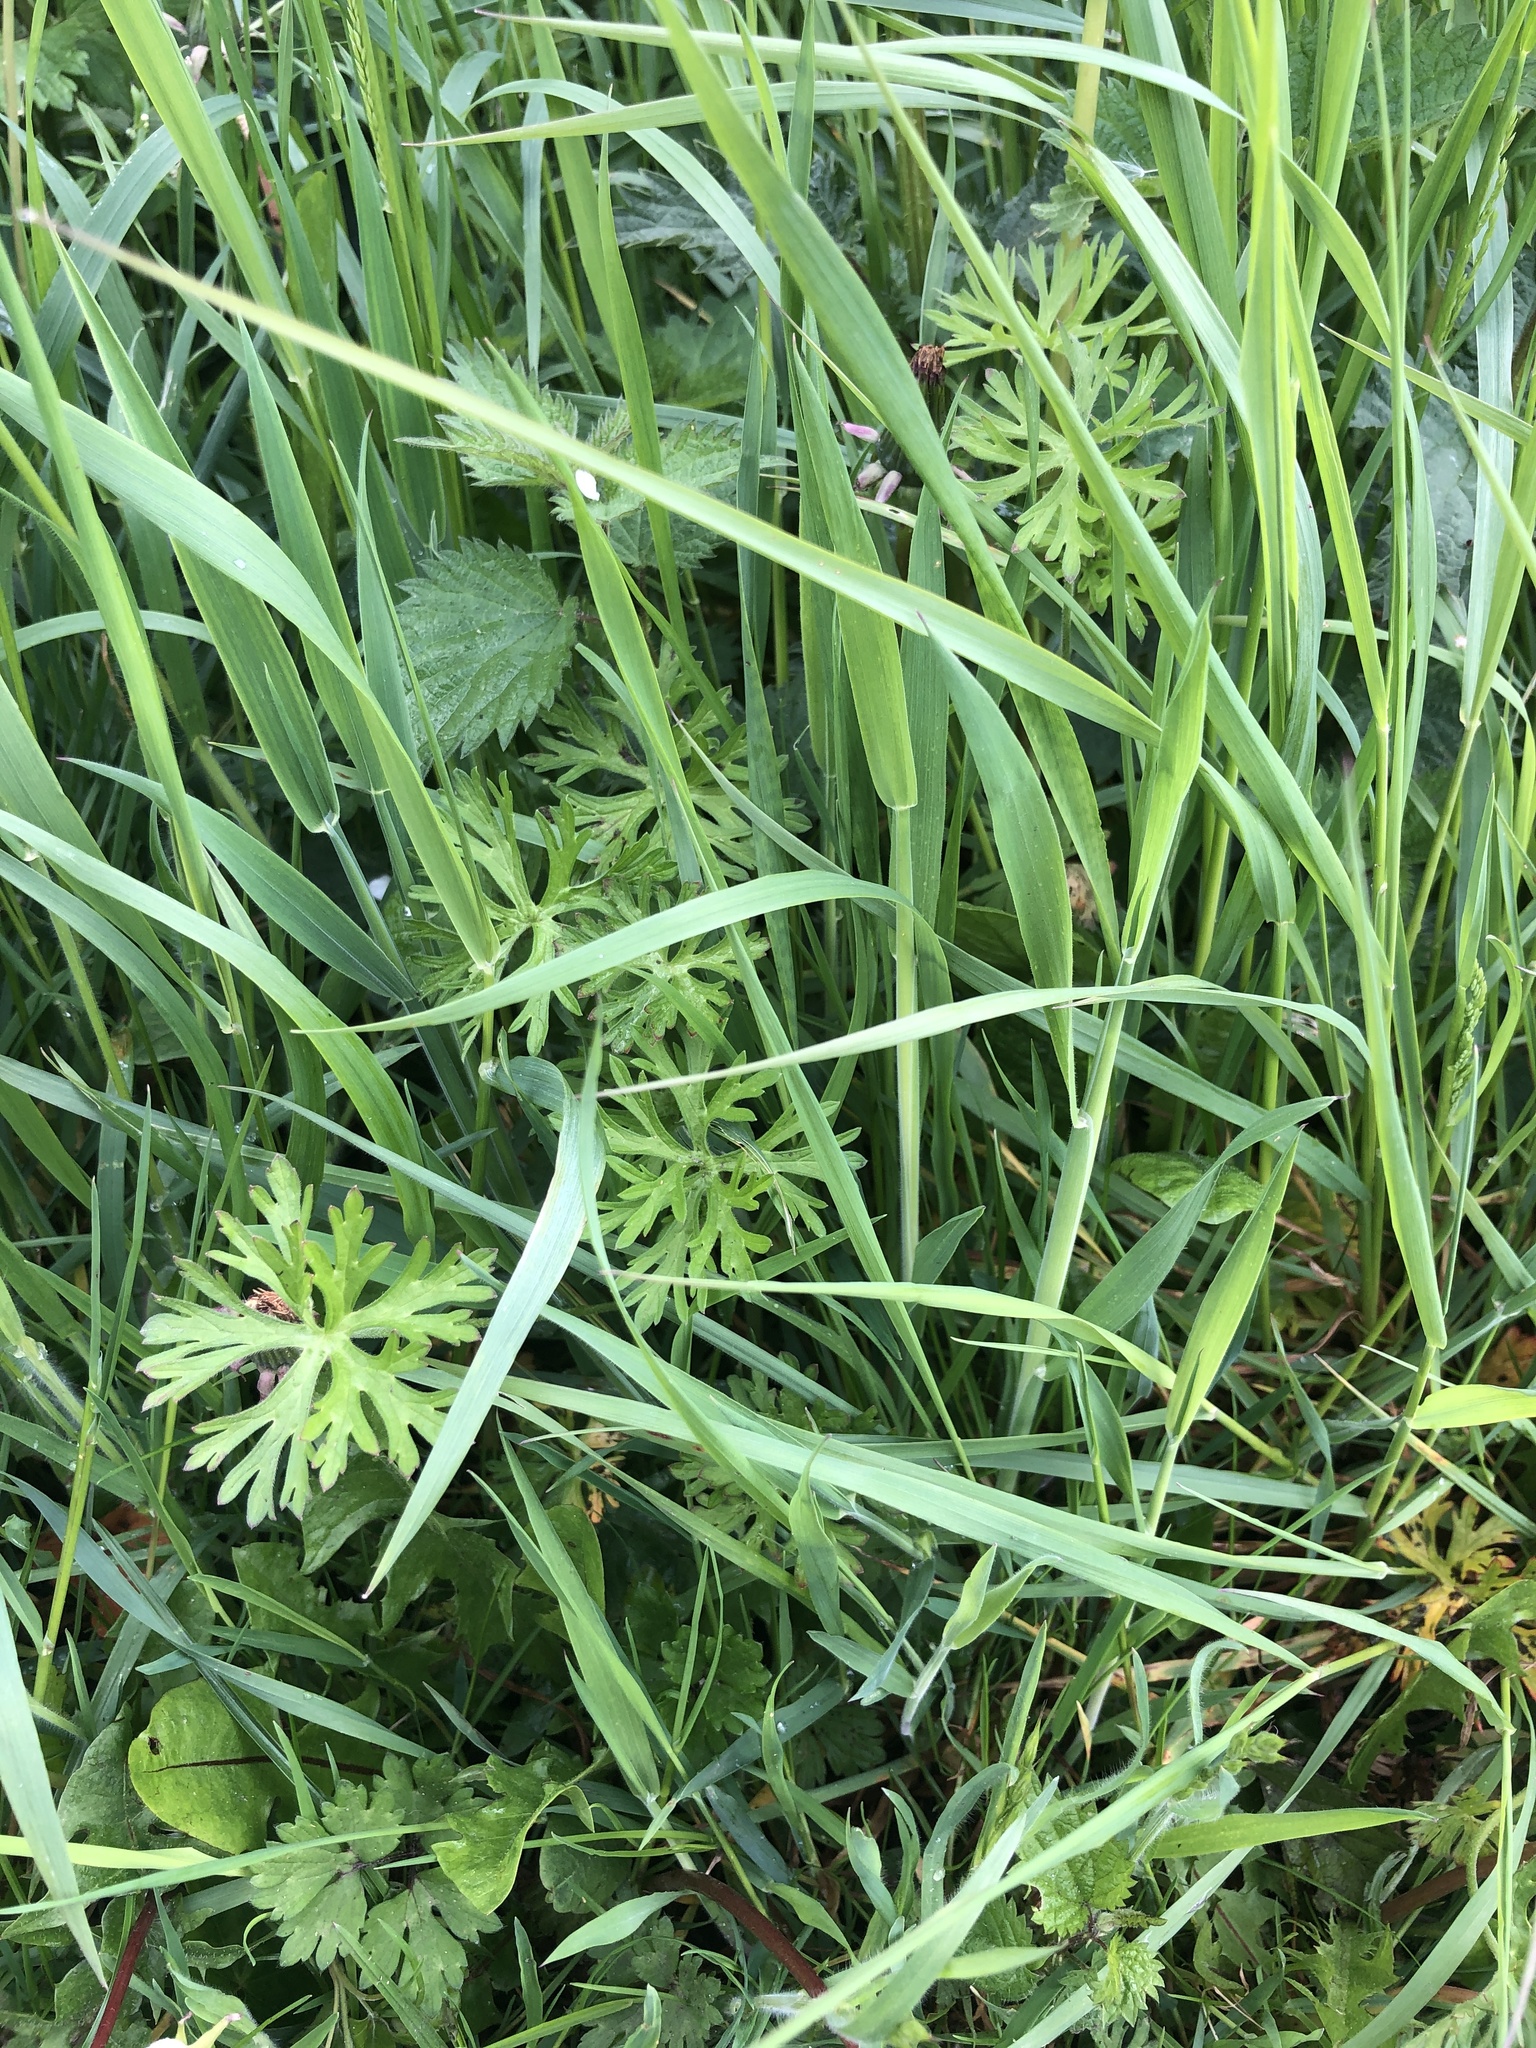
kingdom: Plantae
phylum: Tracheophyta
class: Magnoliopsida
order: Geraniales
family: Geraniaceae
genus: Geranium
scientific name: Geranium dissectum
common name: Cut-leaved crane's-bill
